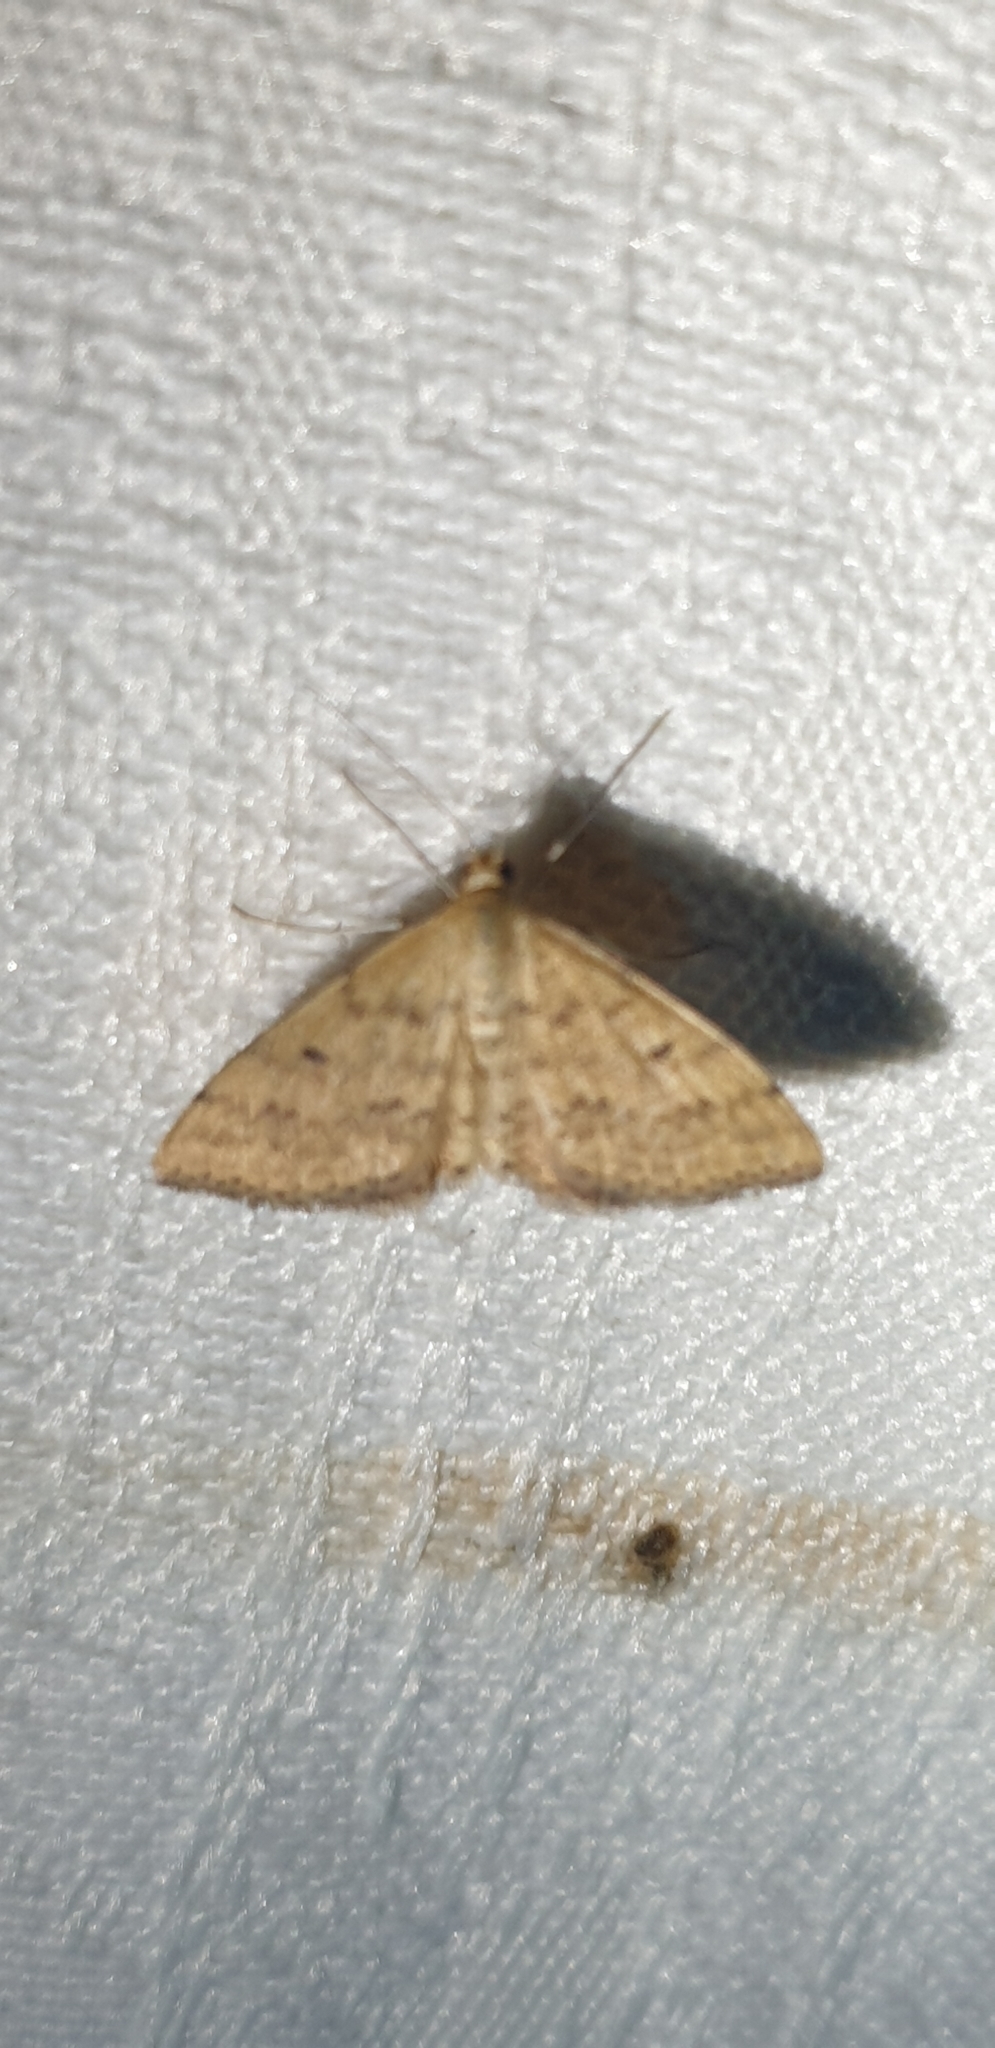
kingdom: Animalia
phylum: Arthropoda
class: Insecta
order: Lepidoptera
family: Geometridae
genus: Scopula
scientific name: Scopula rubraria
